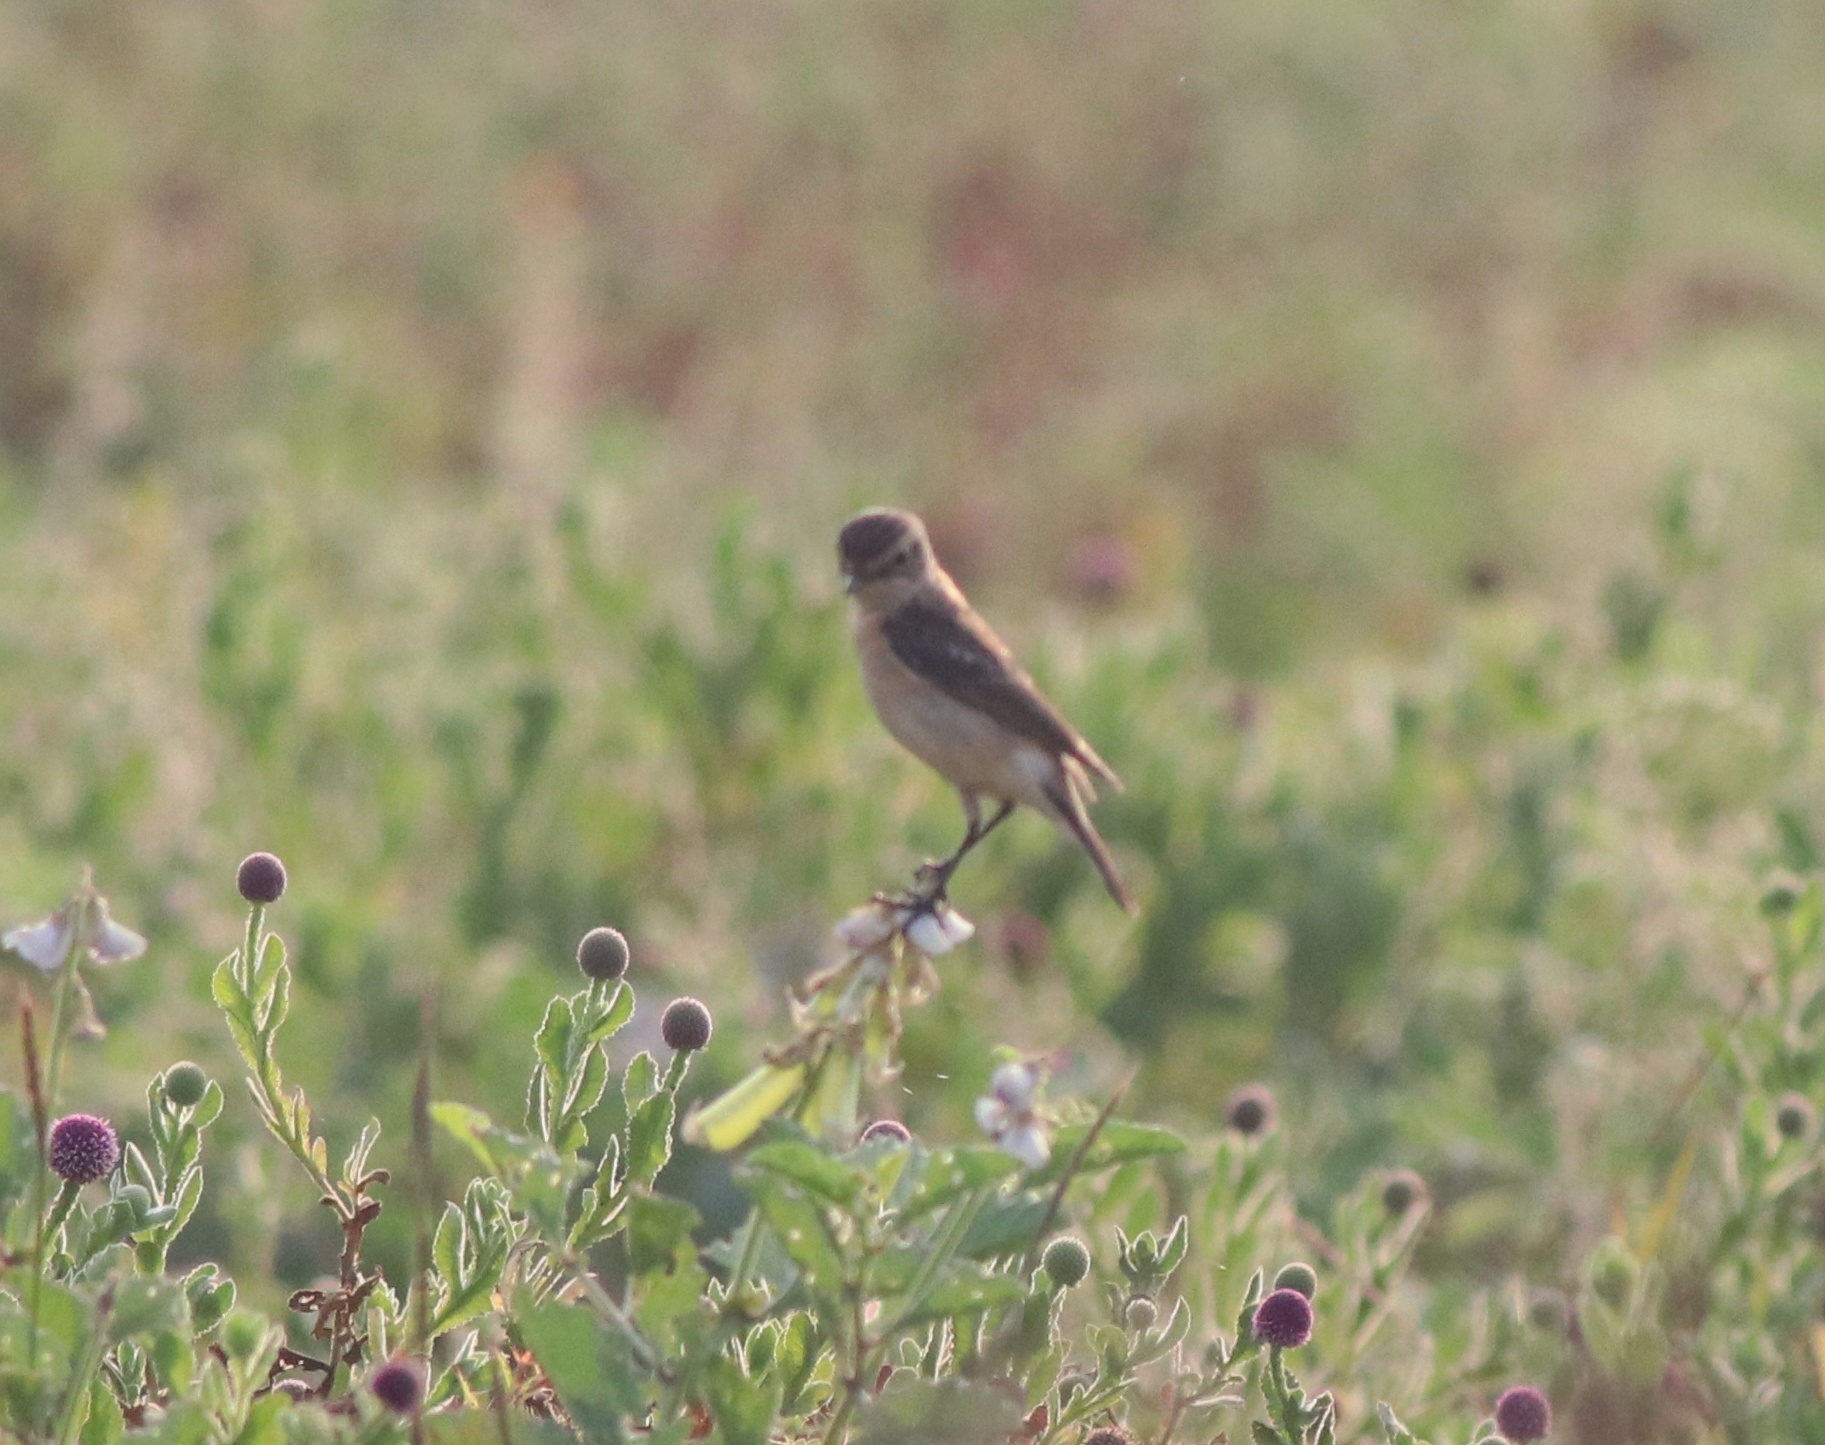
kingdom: Animalia
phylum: Chordata
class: Aves
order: Passeriformes
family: Muscicapidae
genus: Saxicola
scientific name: Saxicola maurus
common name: Siberian stonechat
